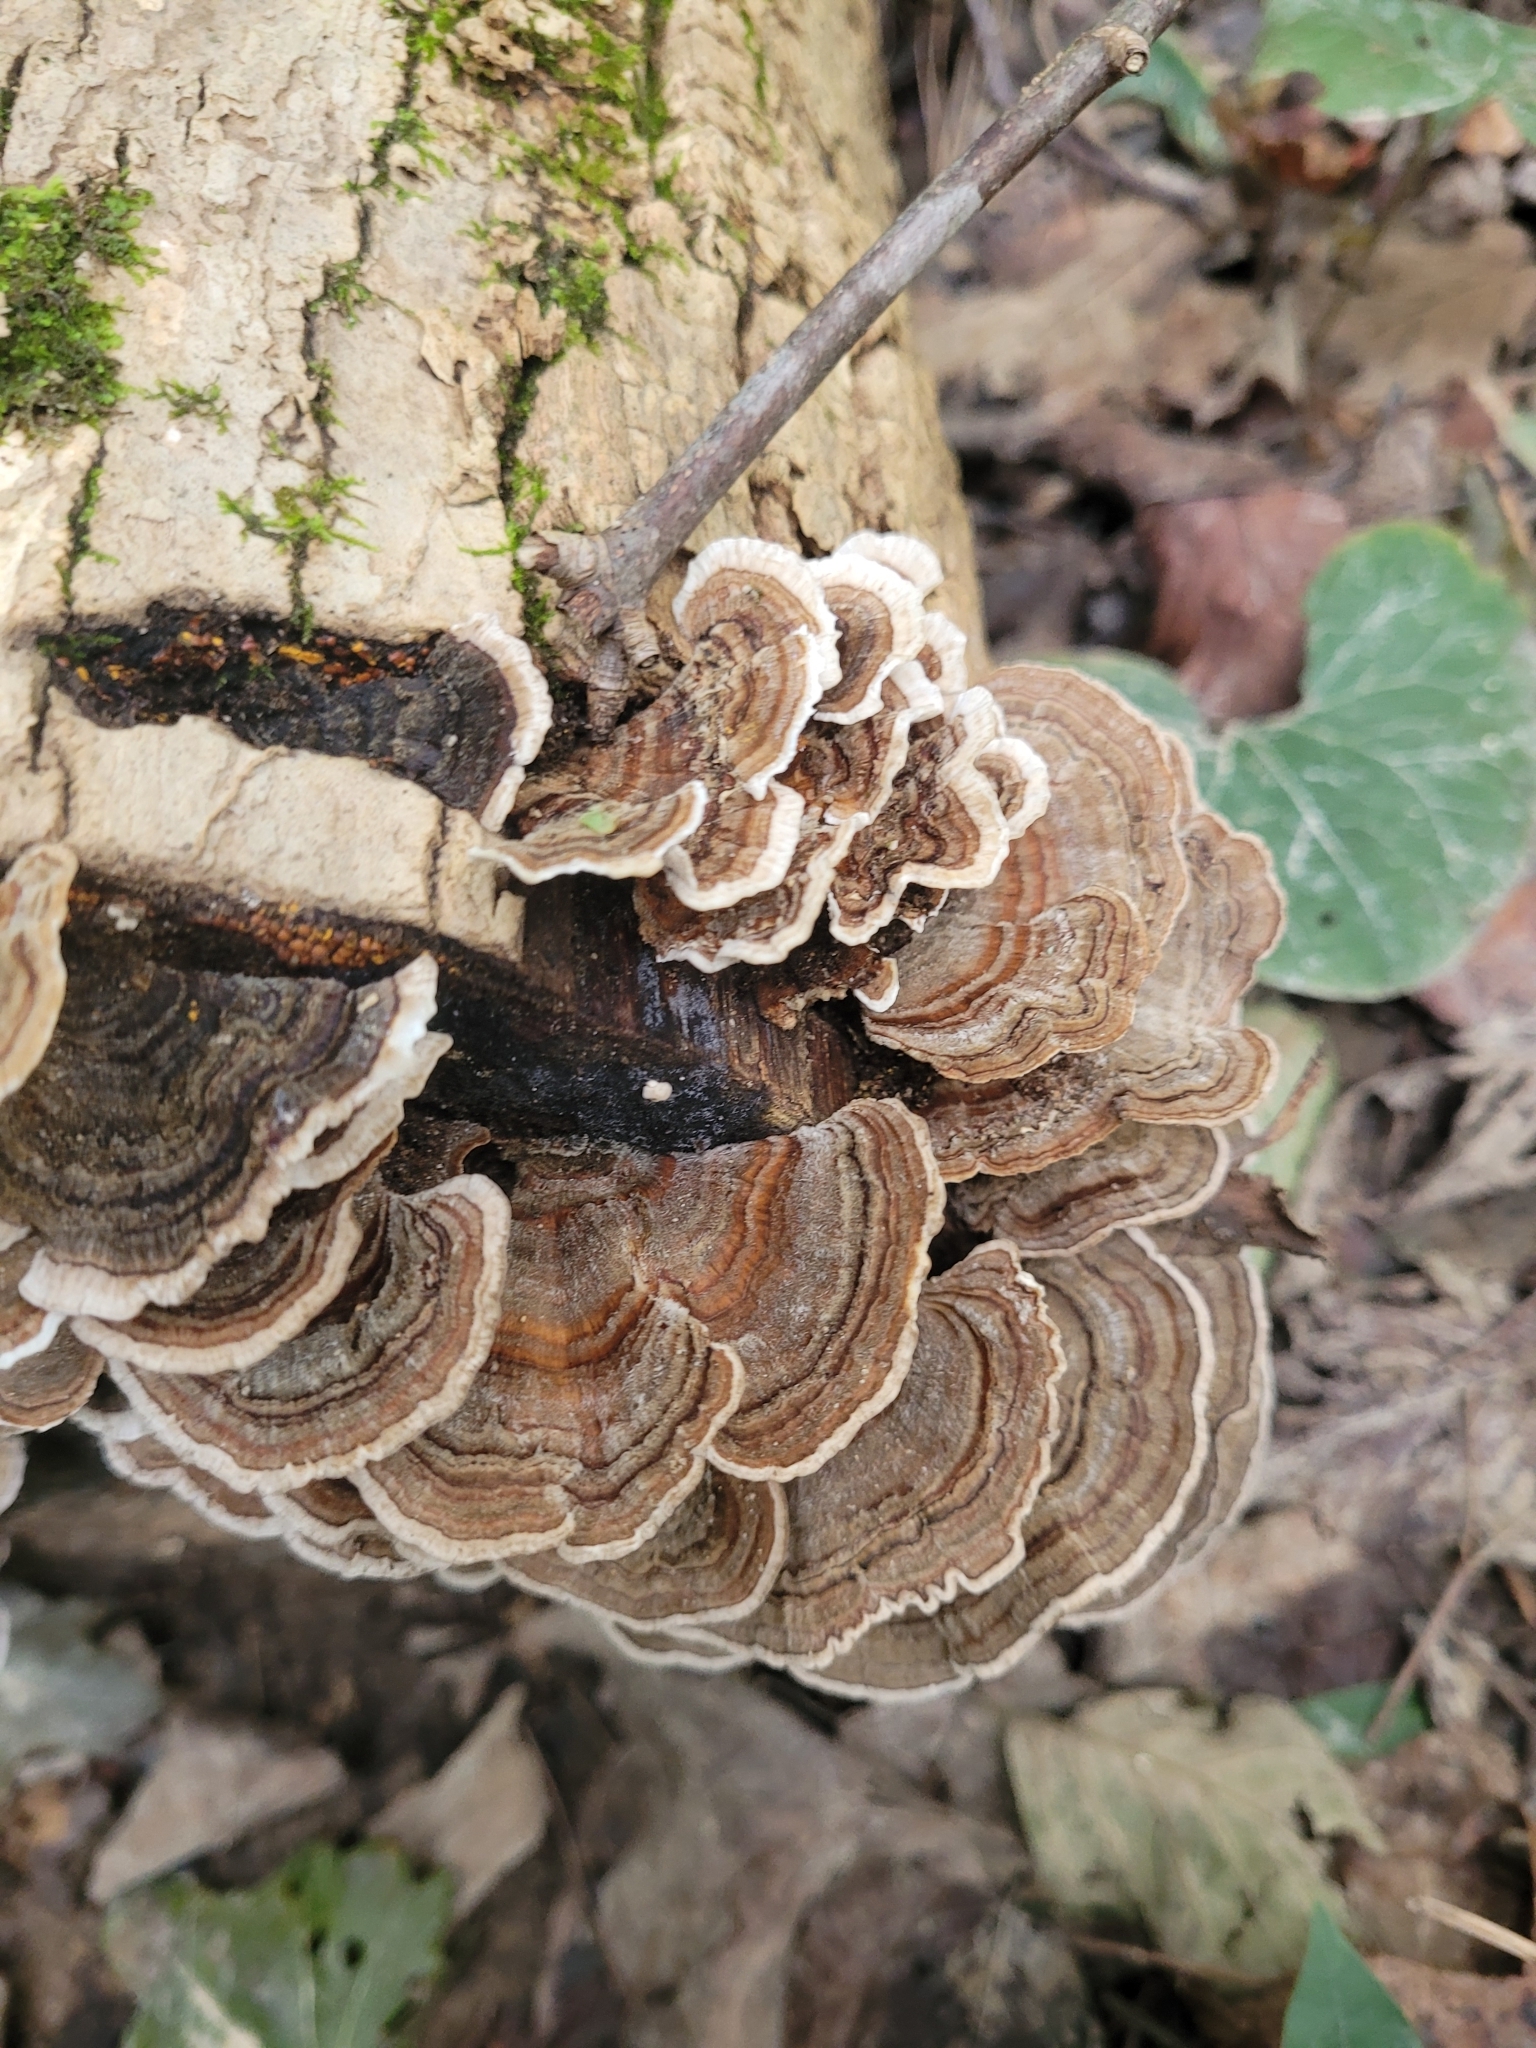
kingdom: Fungi
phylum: Basidiomycota
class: Agaricomycetes
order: Polyporales
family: Polyporaceae
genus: Trametes
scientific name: Trametes versicolor
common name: Turkeytail
